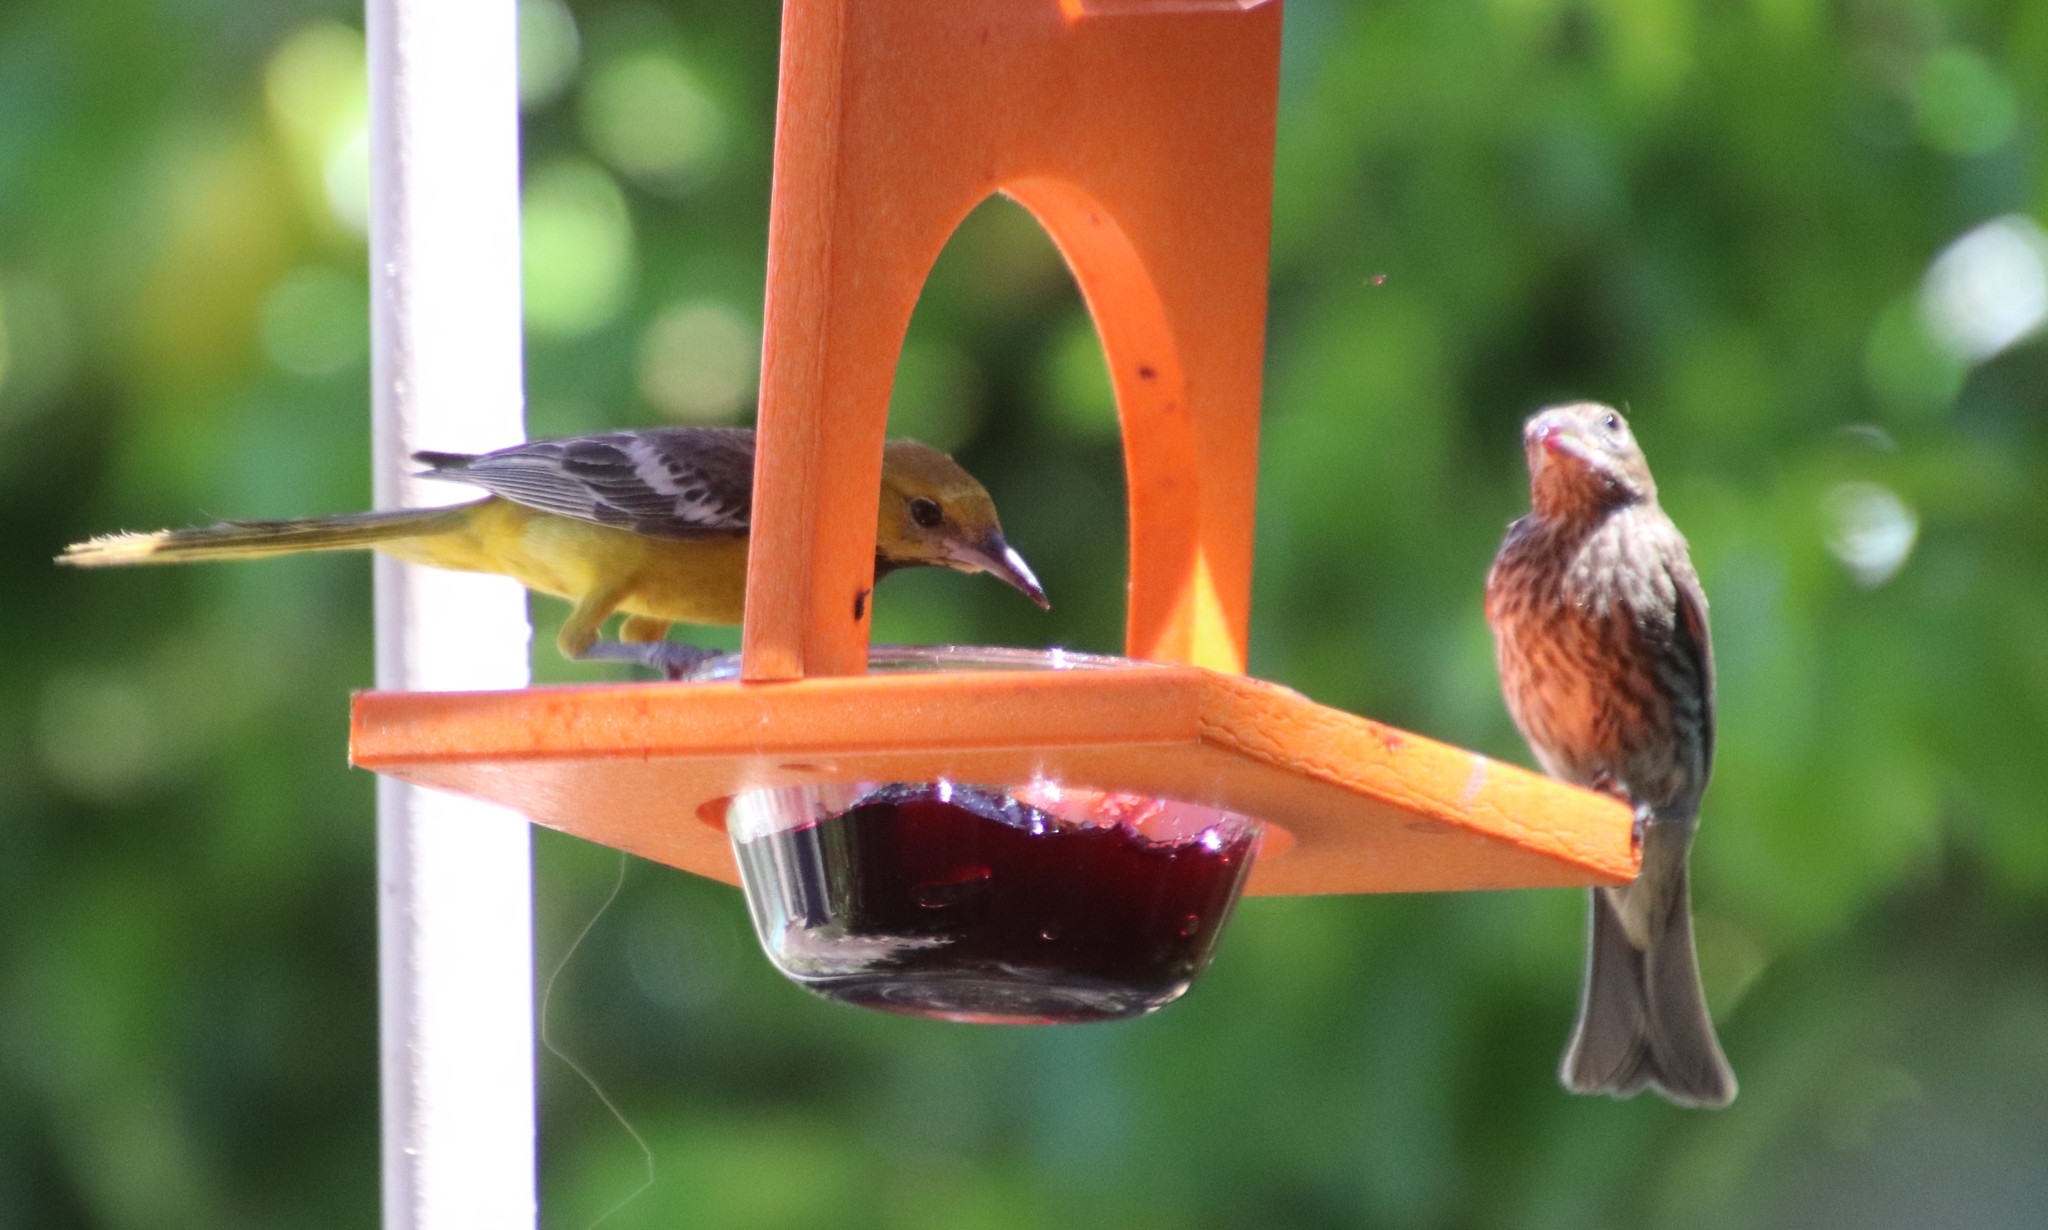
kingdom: Animalia
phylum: Chordata
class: Aves
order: Passeriformes
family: Fringillidae
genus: Haemorhous
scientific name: Haemorhous mexicanus
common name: House finch
